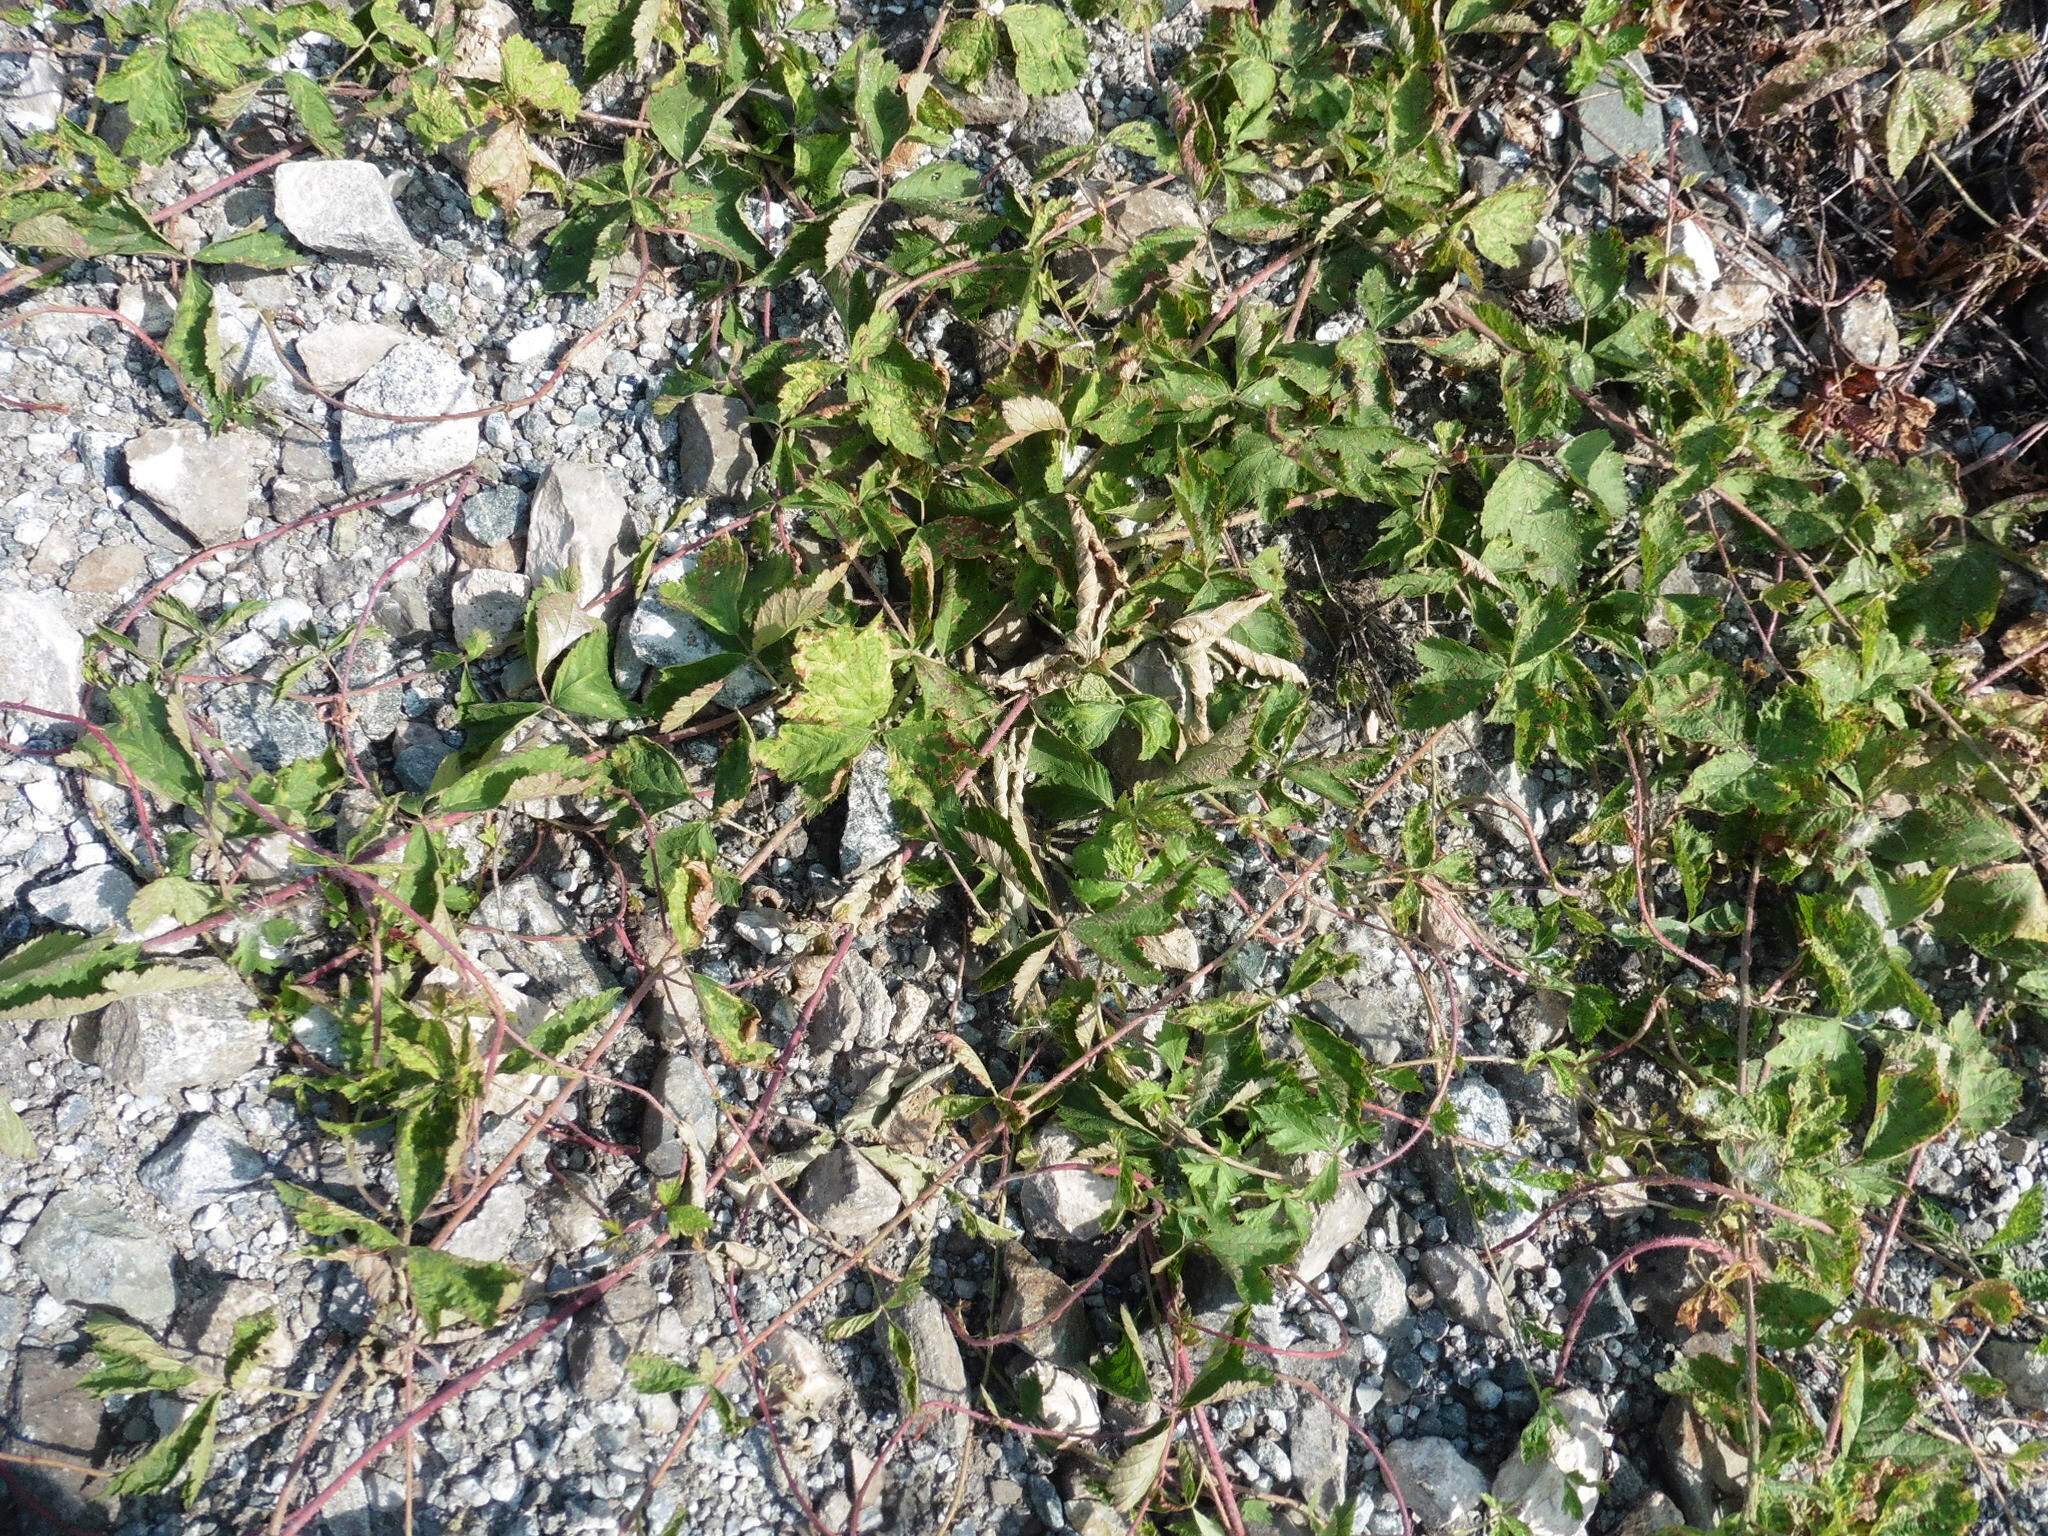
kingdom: Plantae
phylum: Tracheophyta
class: Magnoliopsida
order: Rosales
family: Rosaceae
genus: Rubus
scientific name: Rubus caesius
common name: Dewberry
